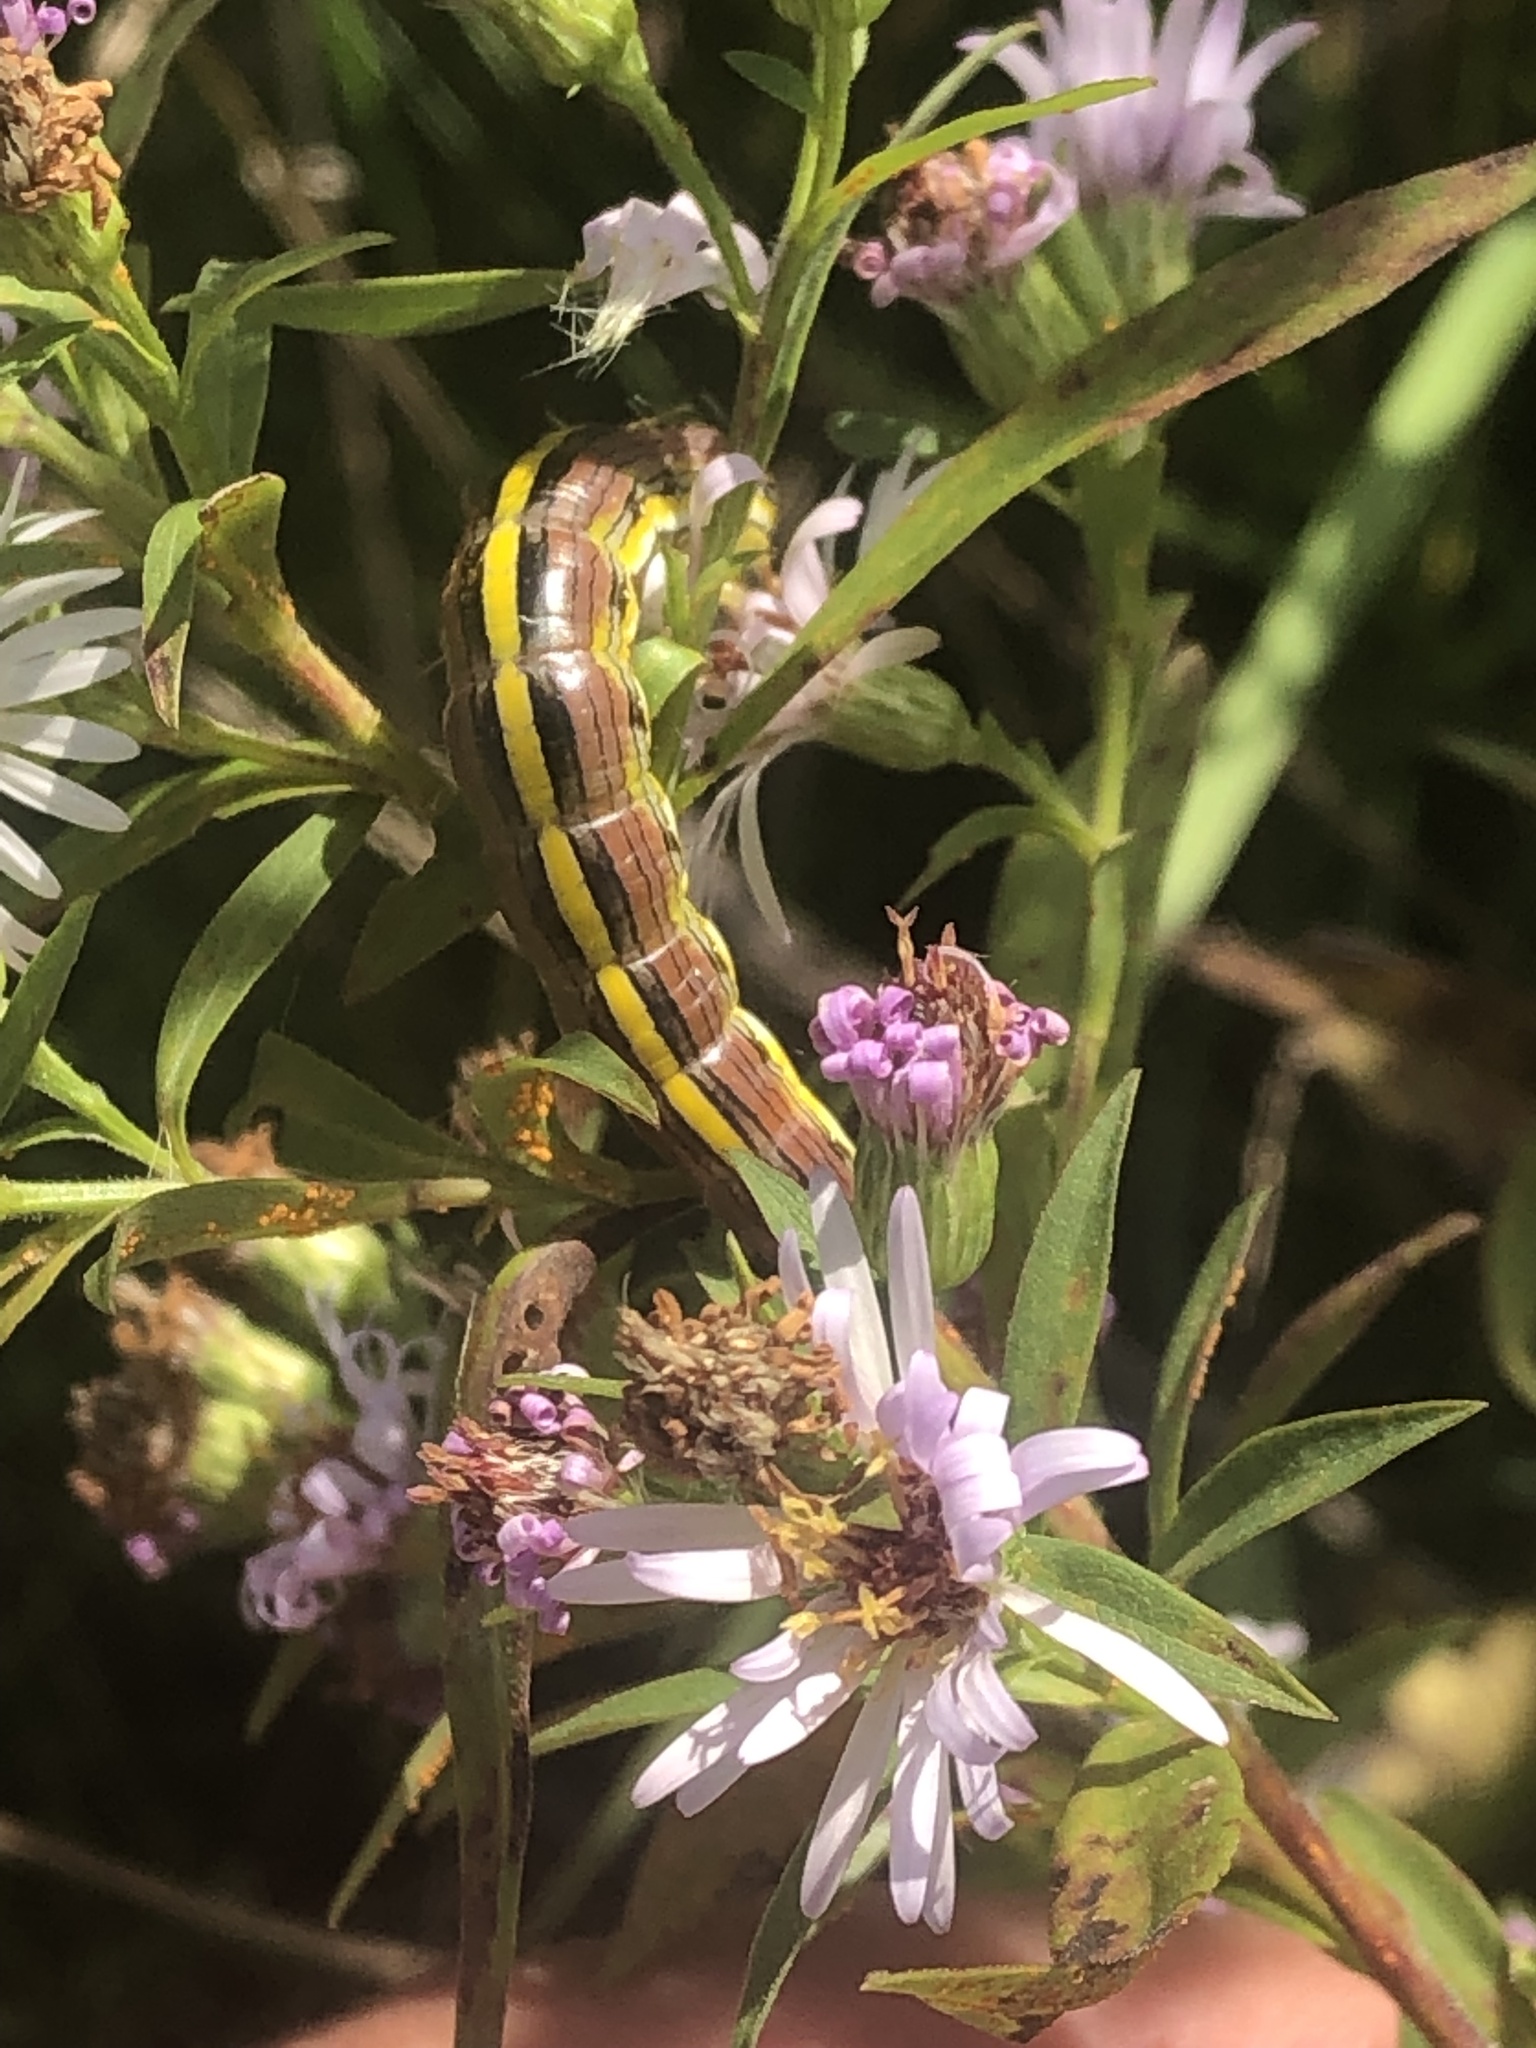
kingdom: Animalia
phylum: Arthropoda
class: Insecta
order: Lepidoptera
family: Noctuidae
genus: Cucullia
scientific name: Cucullia asteroides
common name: Asteroid moth
